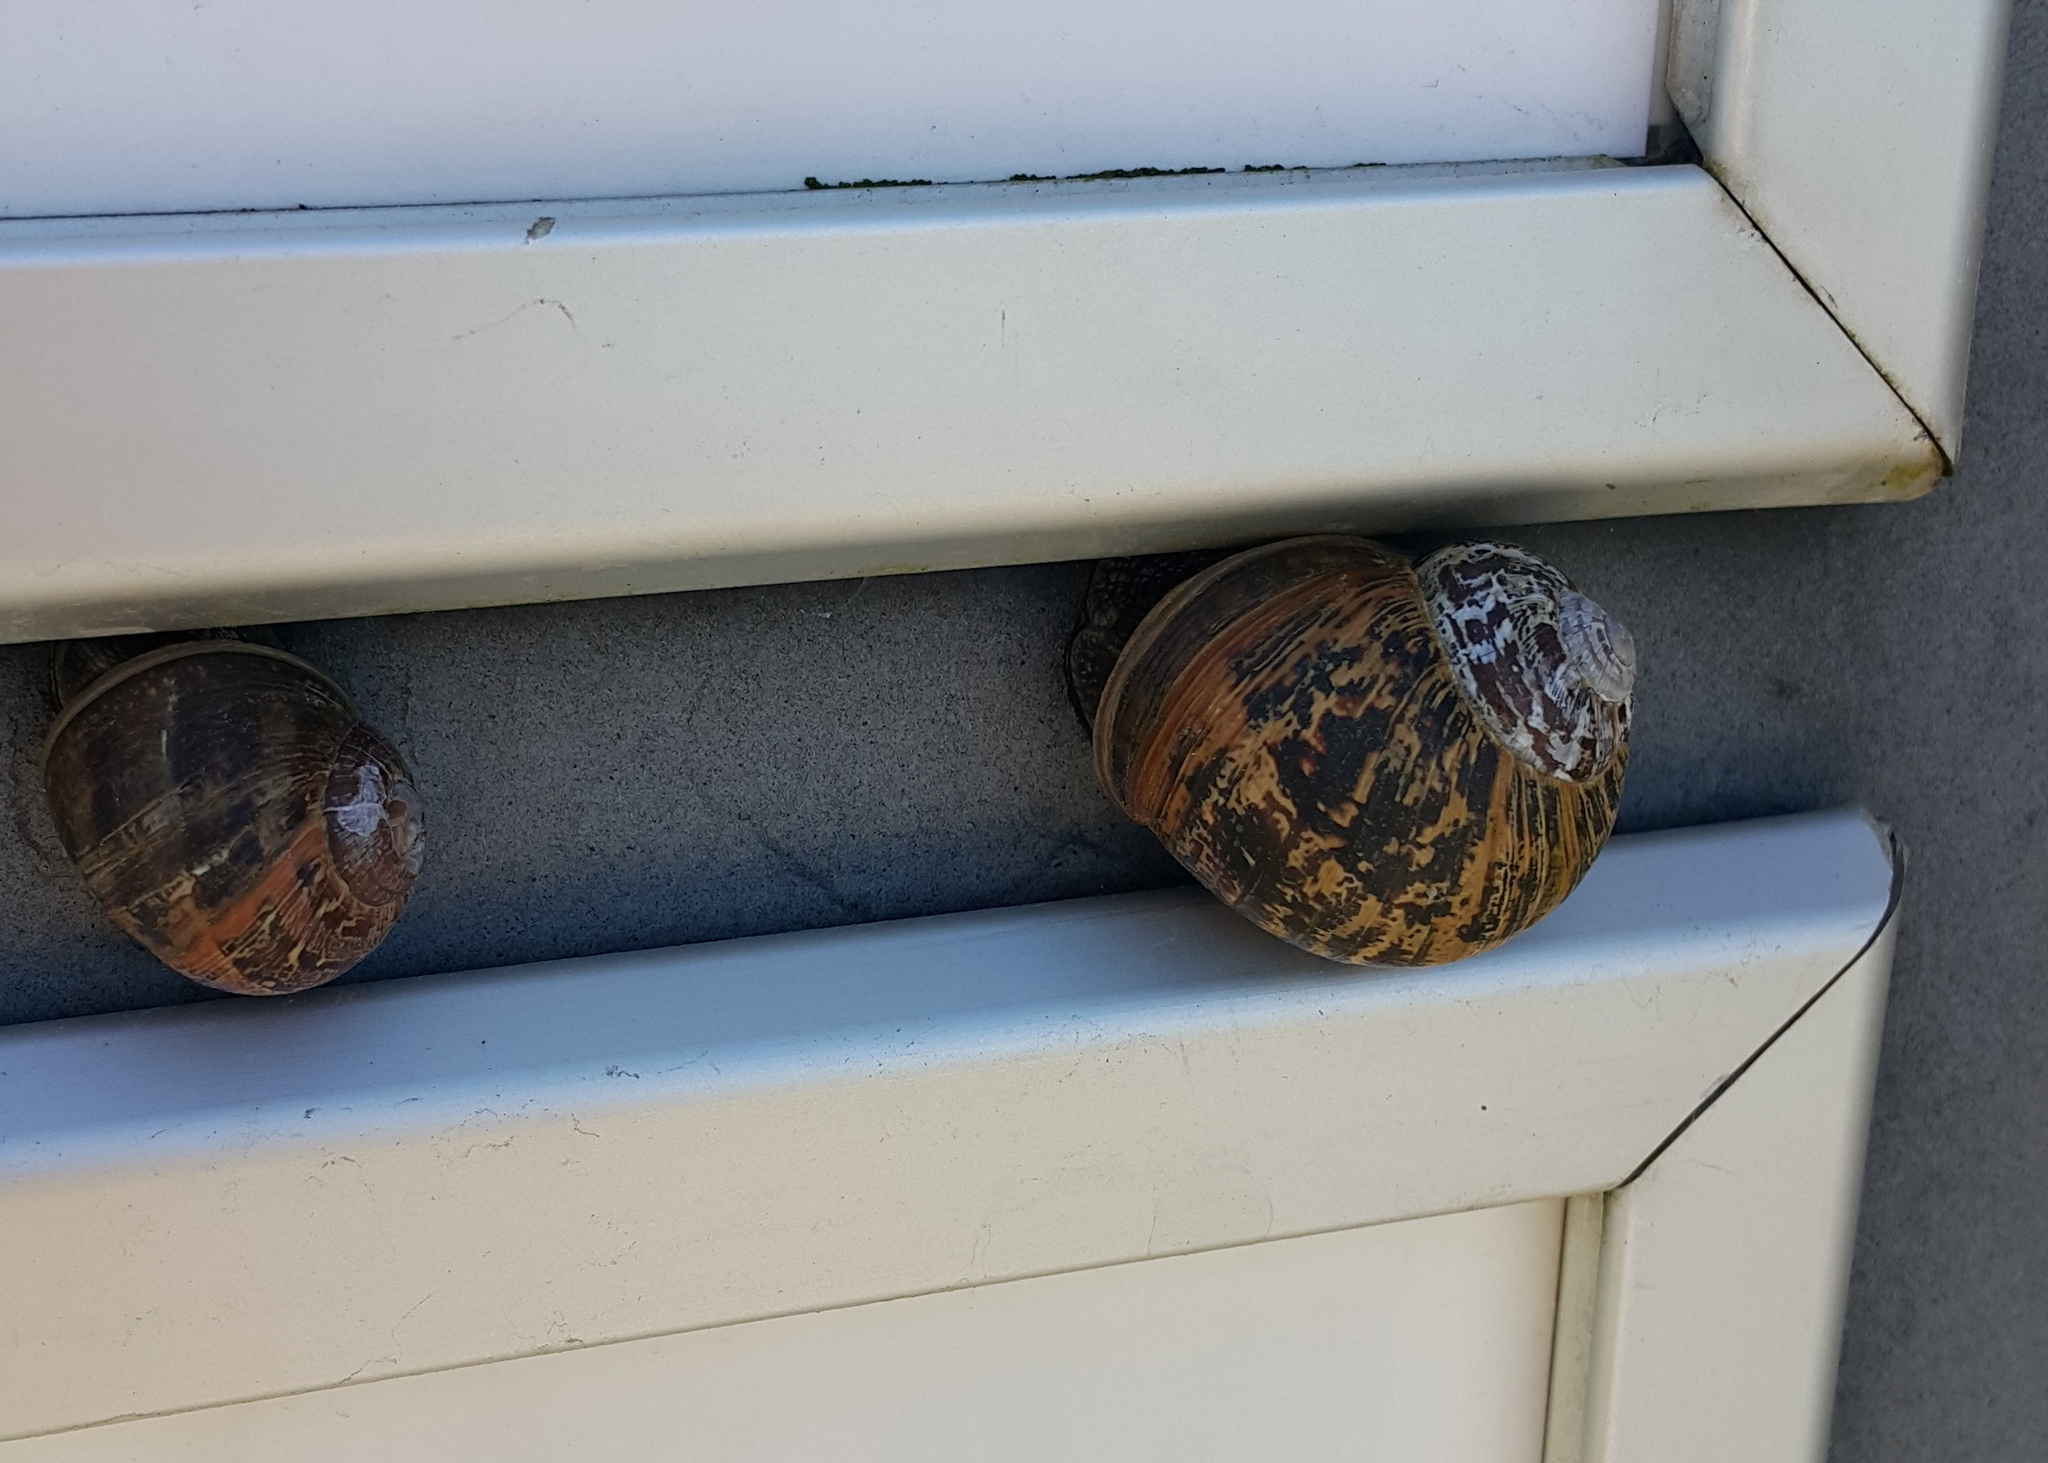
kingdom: Animalia
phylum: Mollusca
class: Gastropoda
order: Stylommatophora
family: Helicidae
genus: Cornu
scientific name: Cornu aspersum
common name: Brown garden snail
